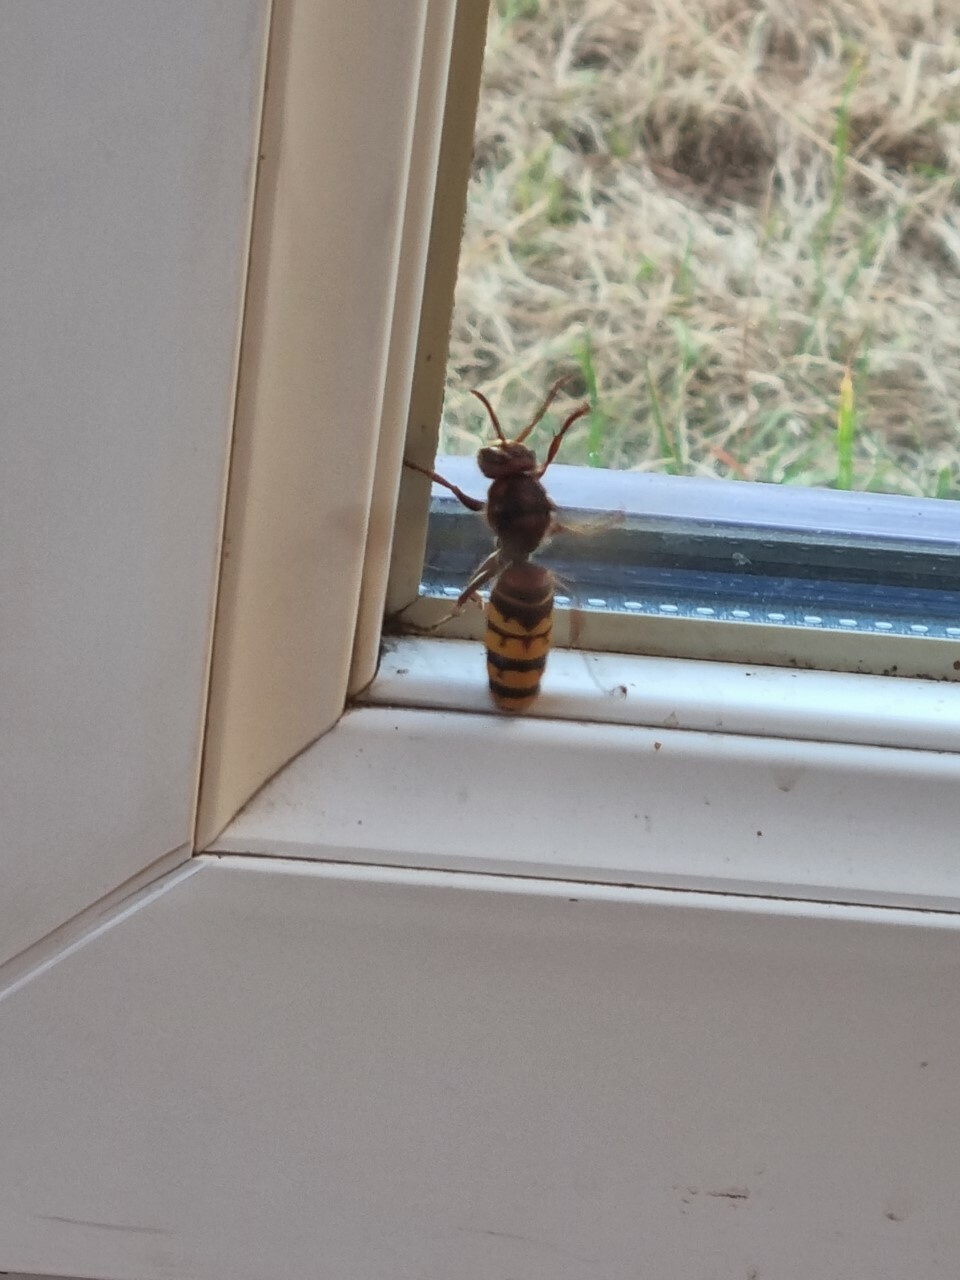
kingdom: Animalia
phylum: Arthropoda
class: Insecta
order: Hymenoptera
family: Vespidae
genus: Vespa
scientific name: Vespa crabro
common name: Hornet
